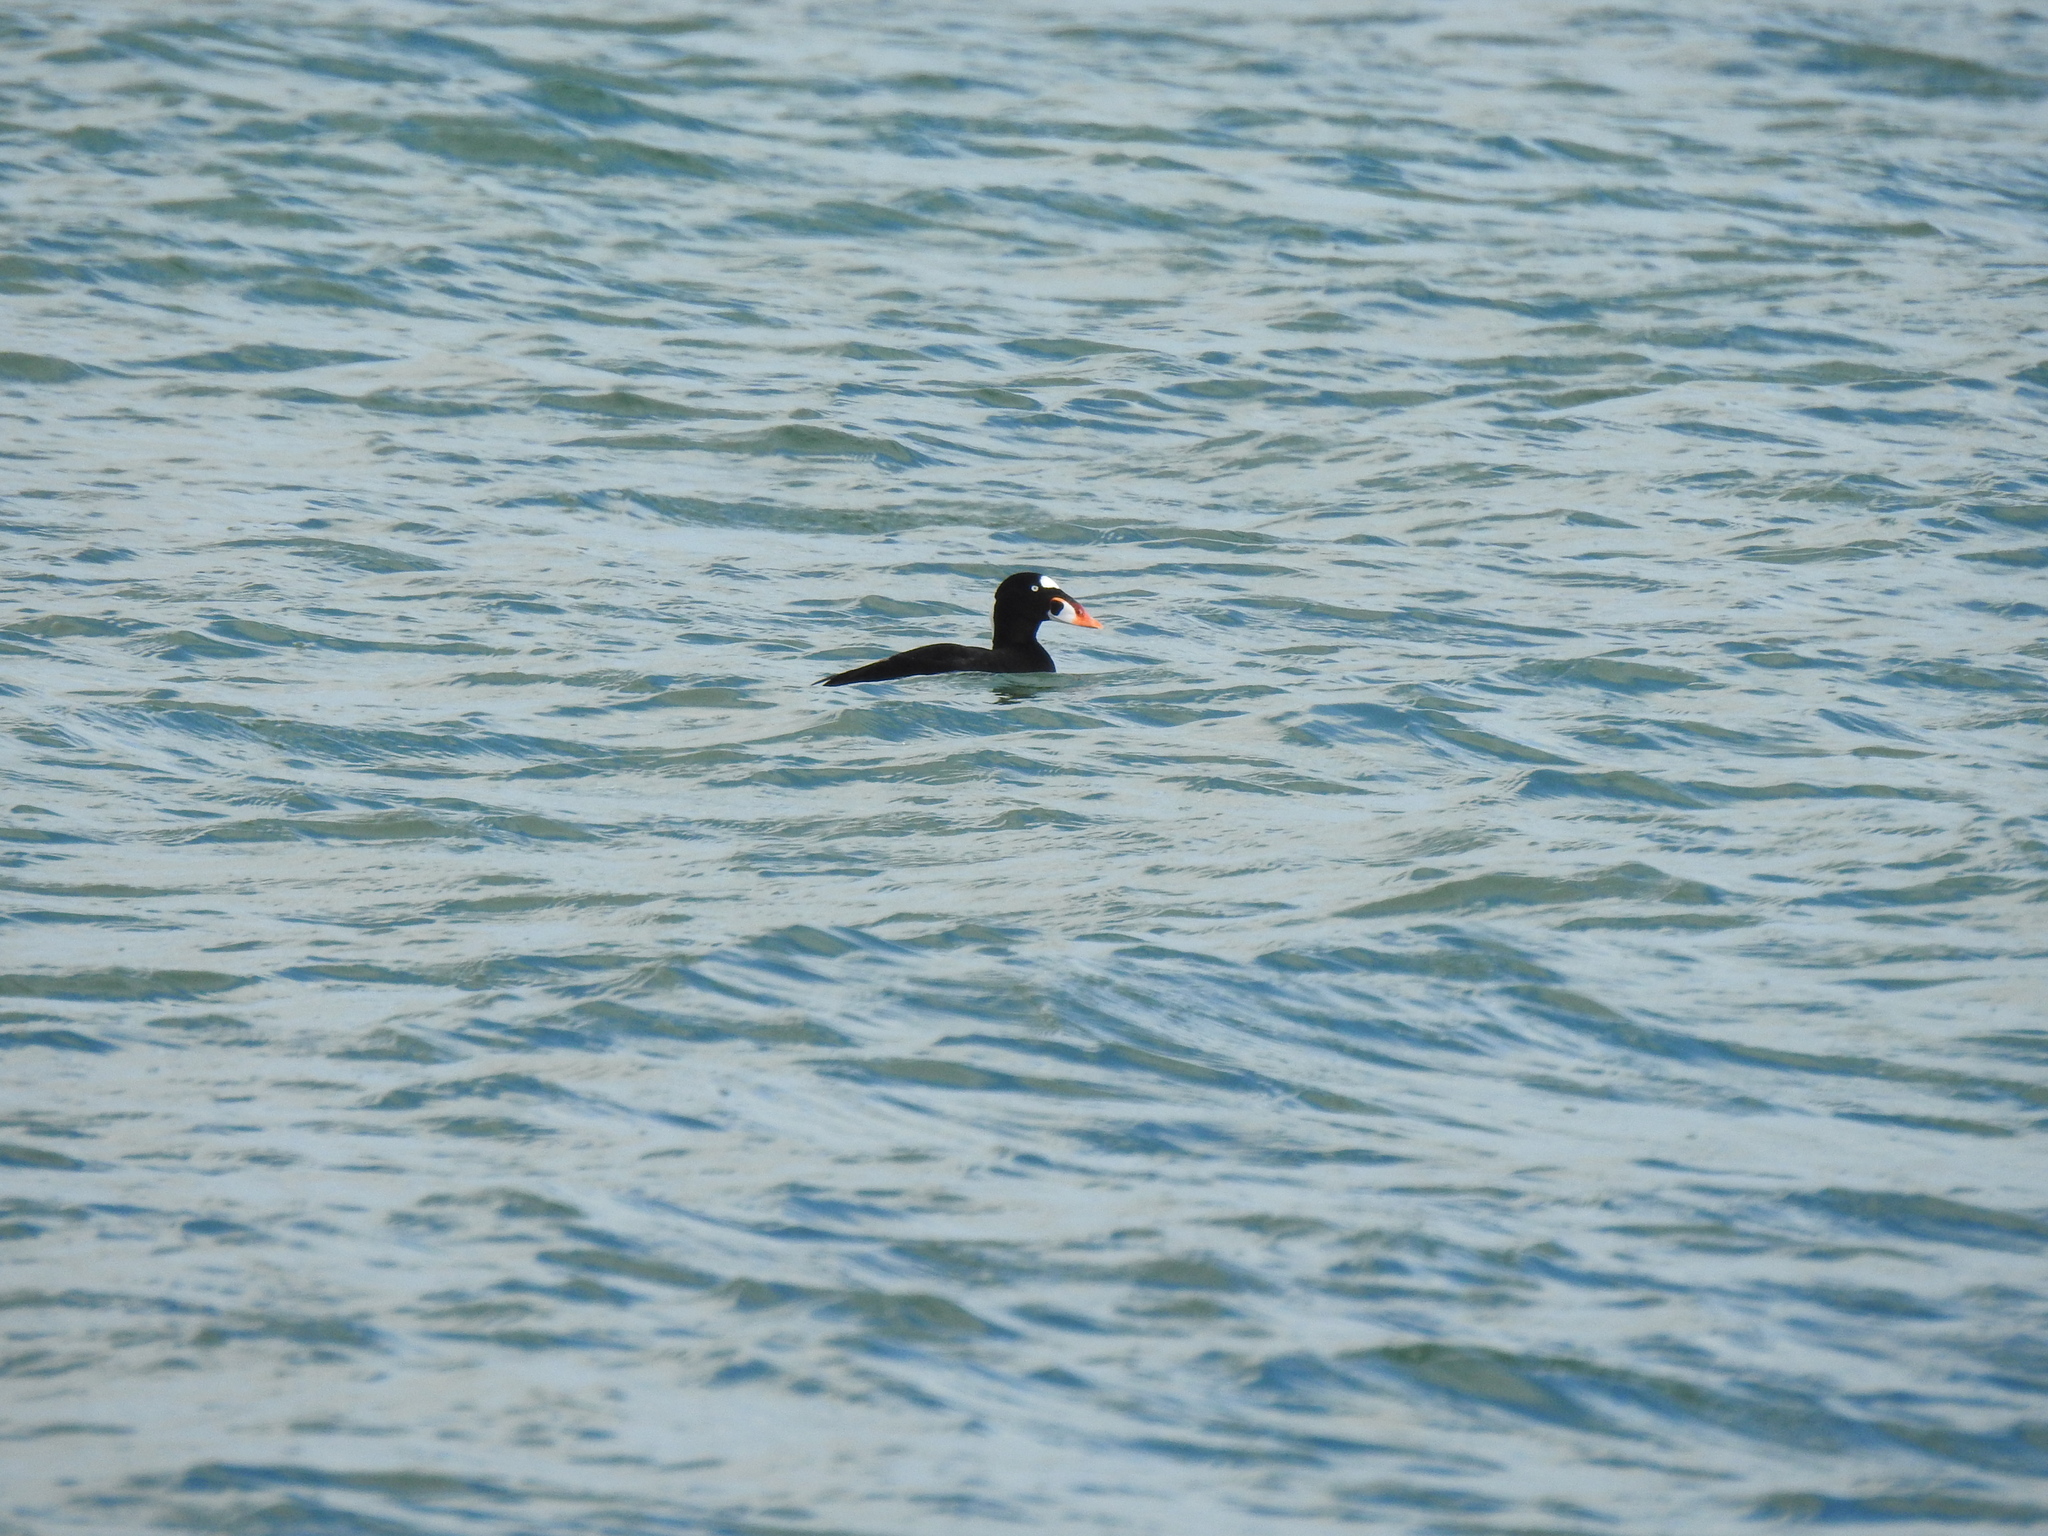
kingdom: Animalia
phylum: Chordata
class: Aves
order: Anseriformes
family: Anatidae
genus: Melanitta
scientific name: Melanitta perspicillata
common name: Surf scoter
